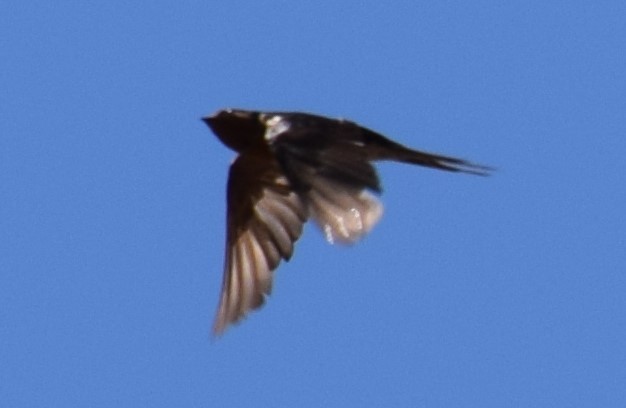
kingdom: Animalia
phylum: Chordata
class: Aves
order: Passeriformes
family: Hirundinidae
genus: Hirundo
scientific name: Hirundo neoxena
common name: Welcome swallow
